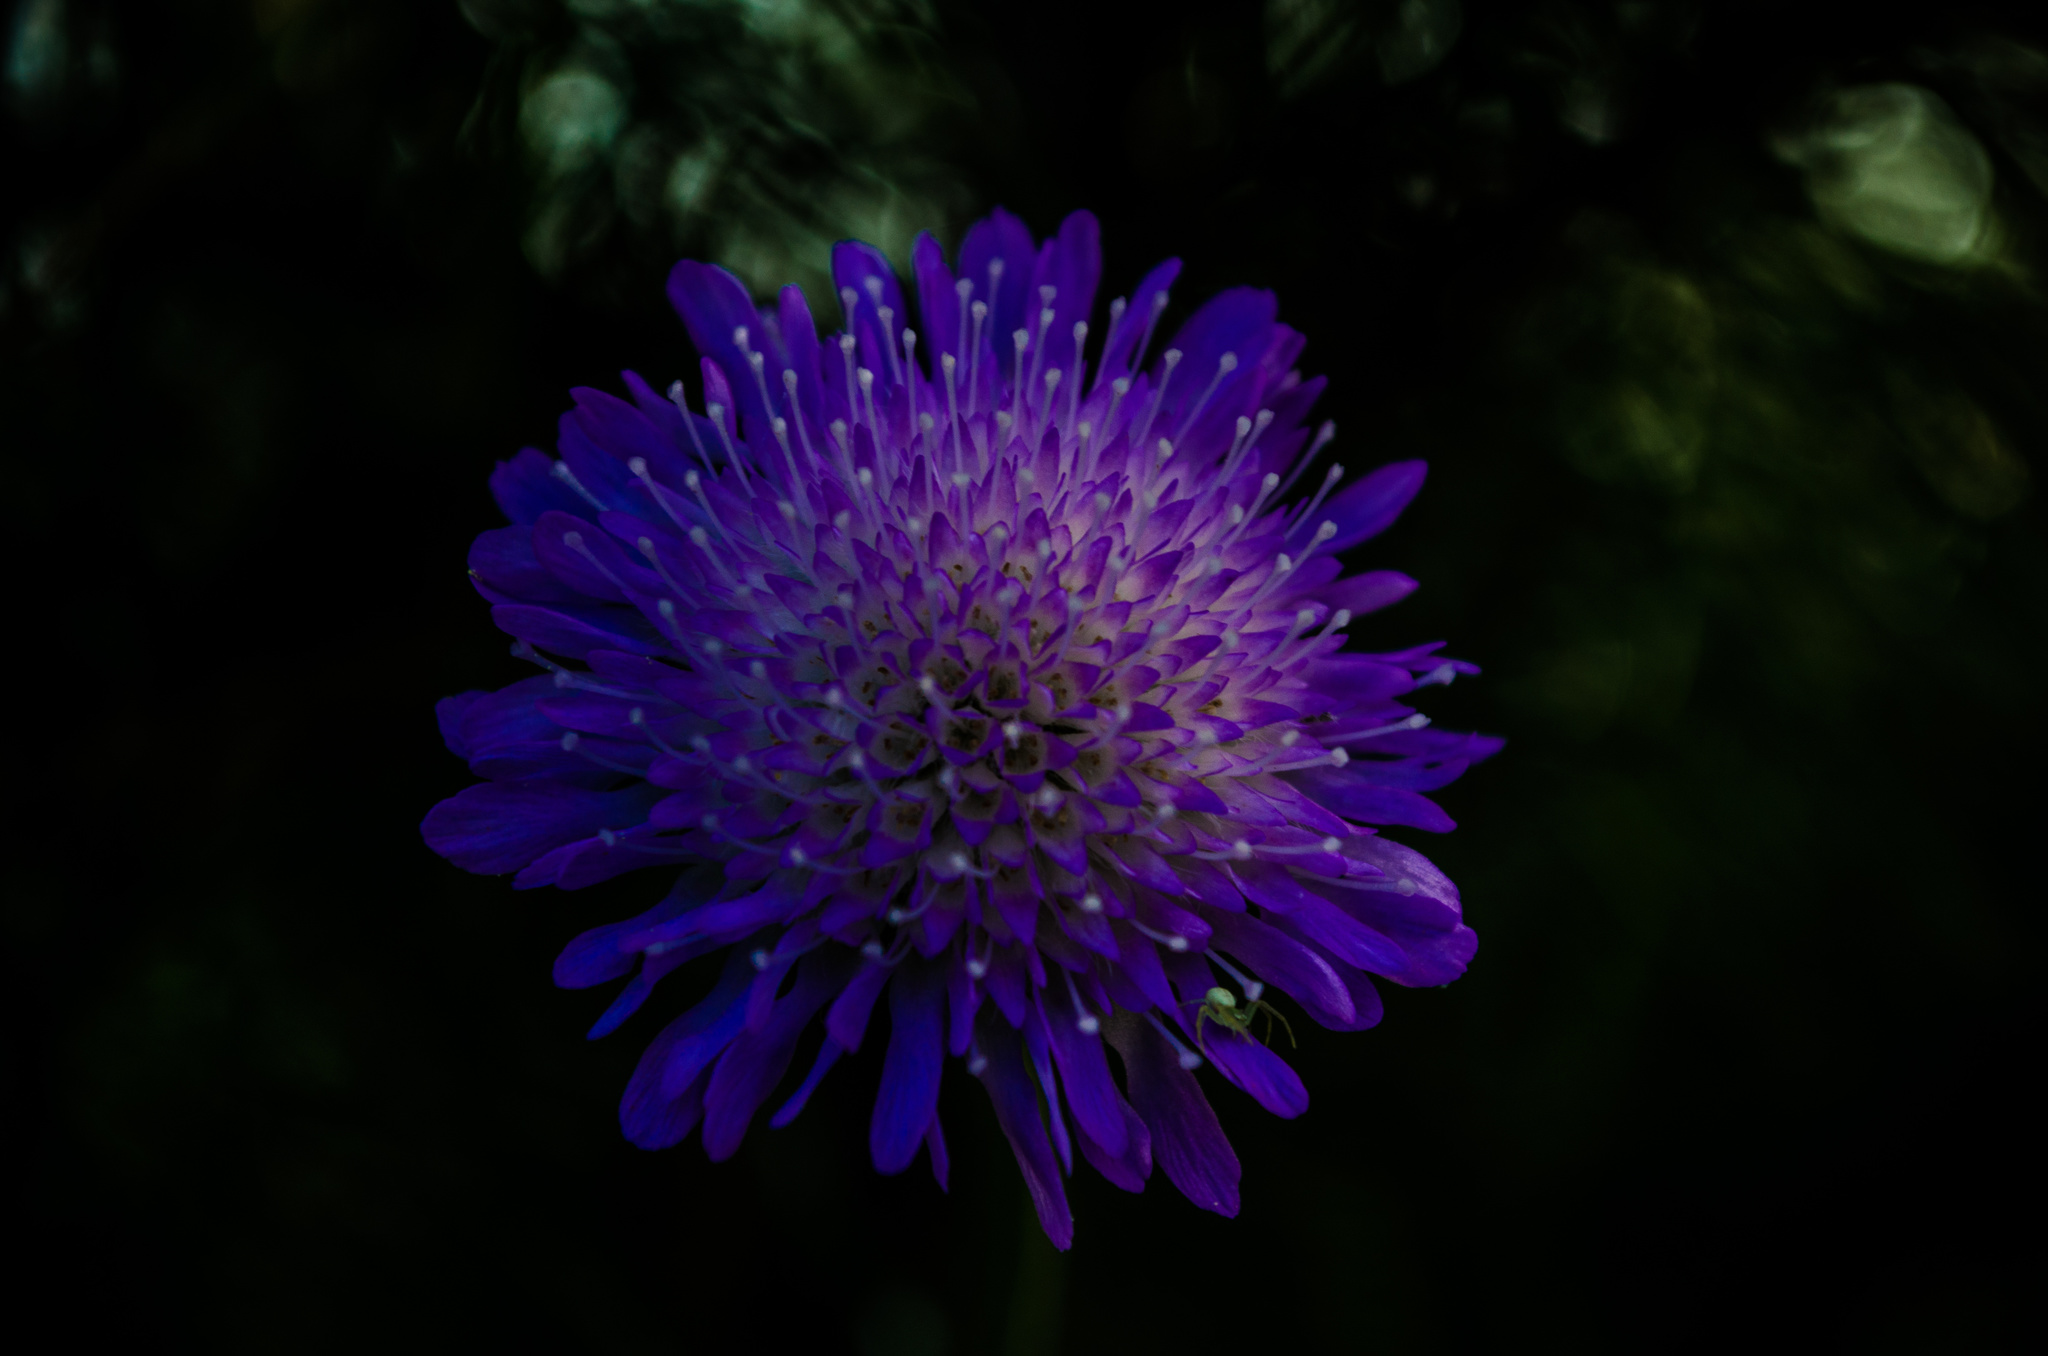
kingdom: Plantae
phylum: Tracheophyta
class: Magnoliopsida
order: Dipsacales
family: Caprifoliaceae
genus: Knautia
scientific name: Knautia arvensis
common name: Field scabiosa
